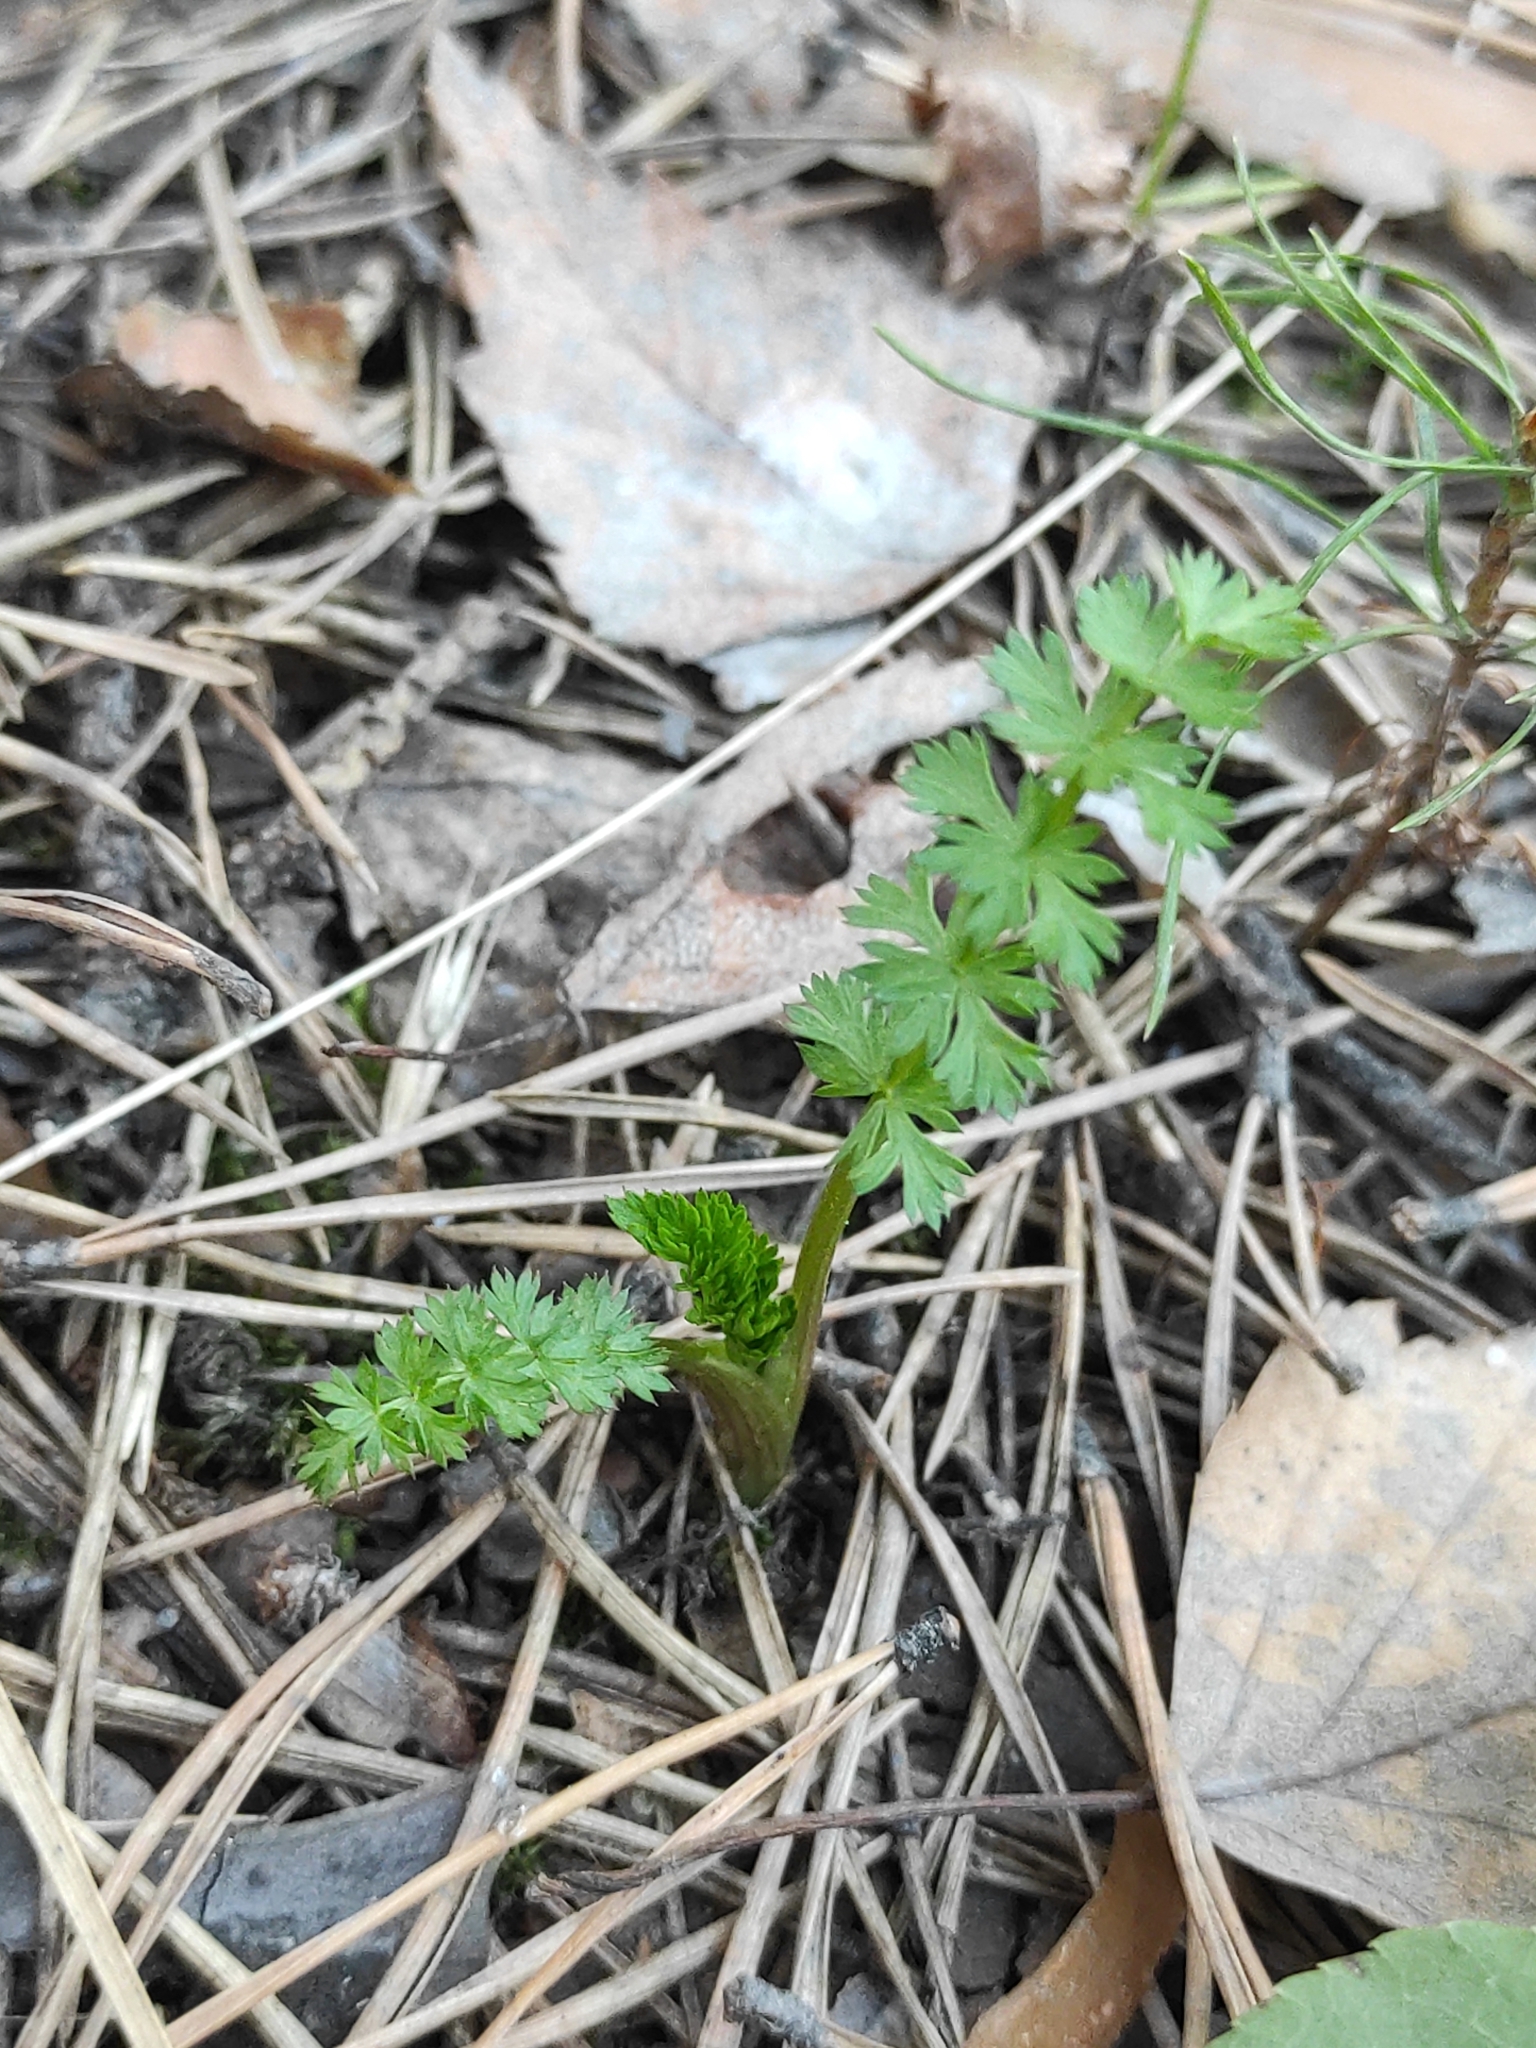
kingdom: Plantae
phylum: Tracheophyta
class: Magnoliopsida
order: Rosales
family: Rosaceae
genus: Filipendula
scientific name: Filipendula vulgaris
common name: Dropwort
